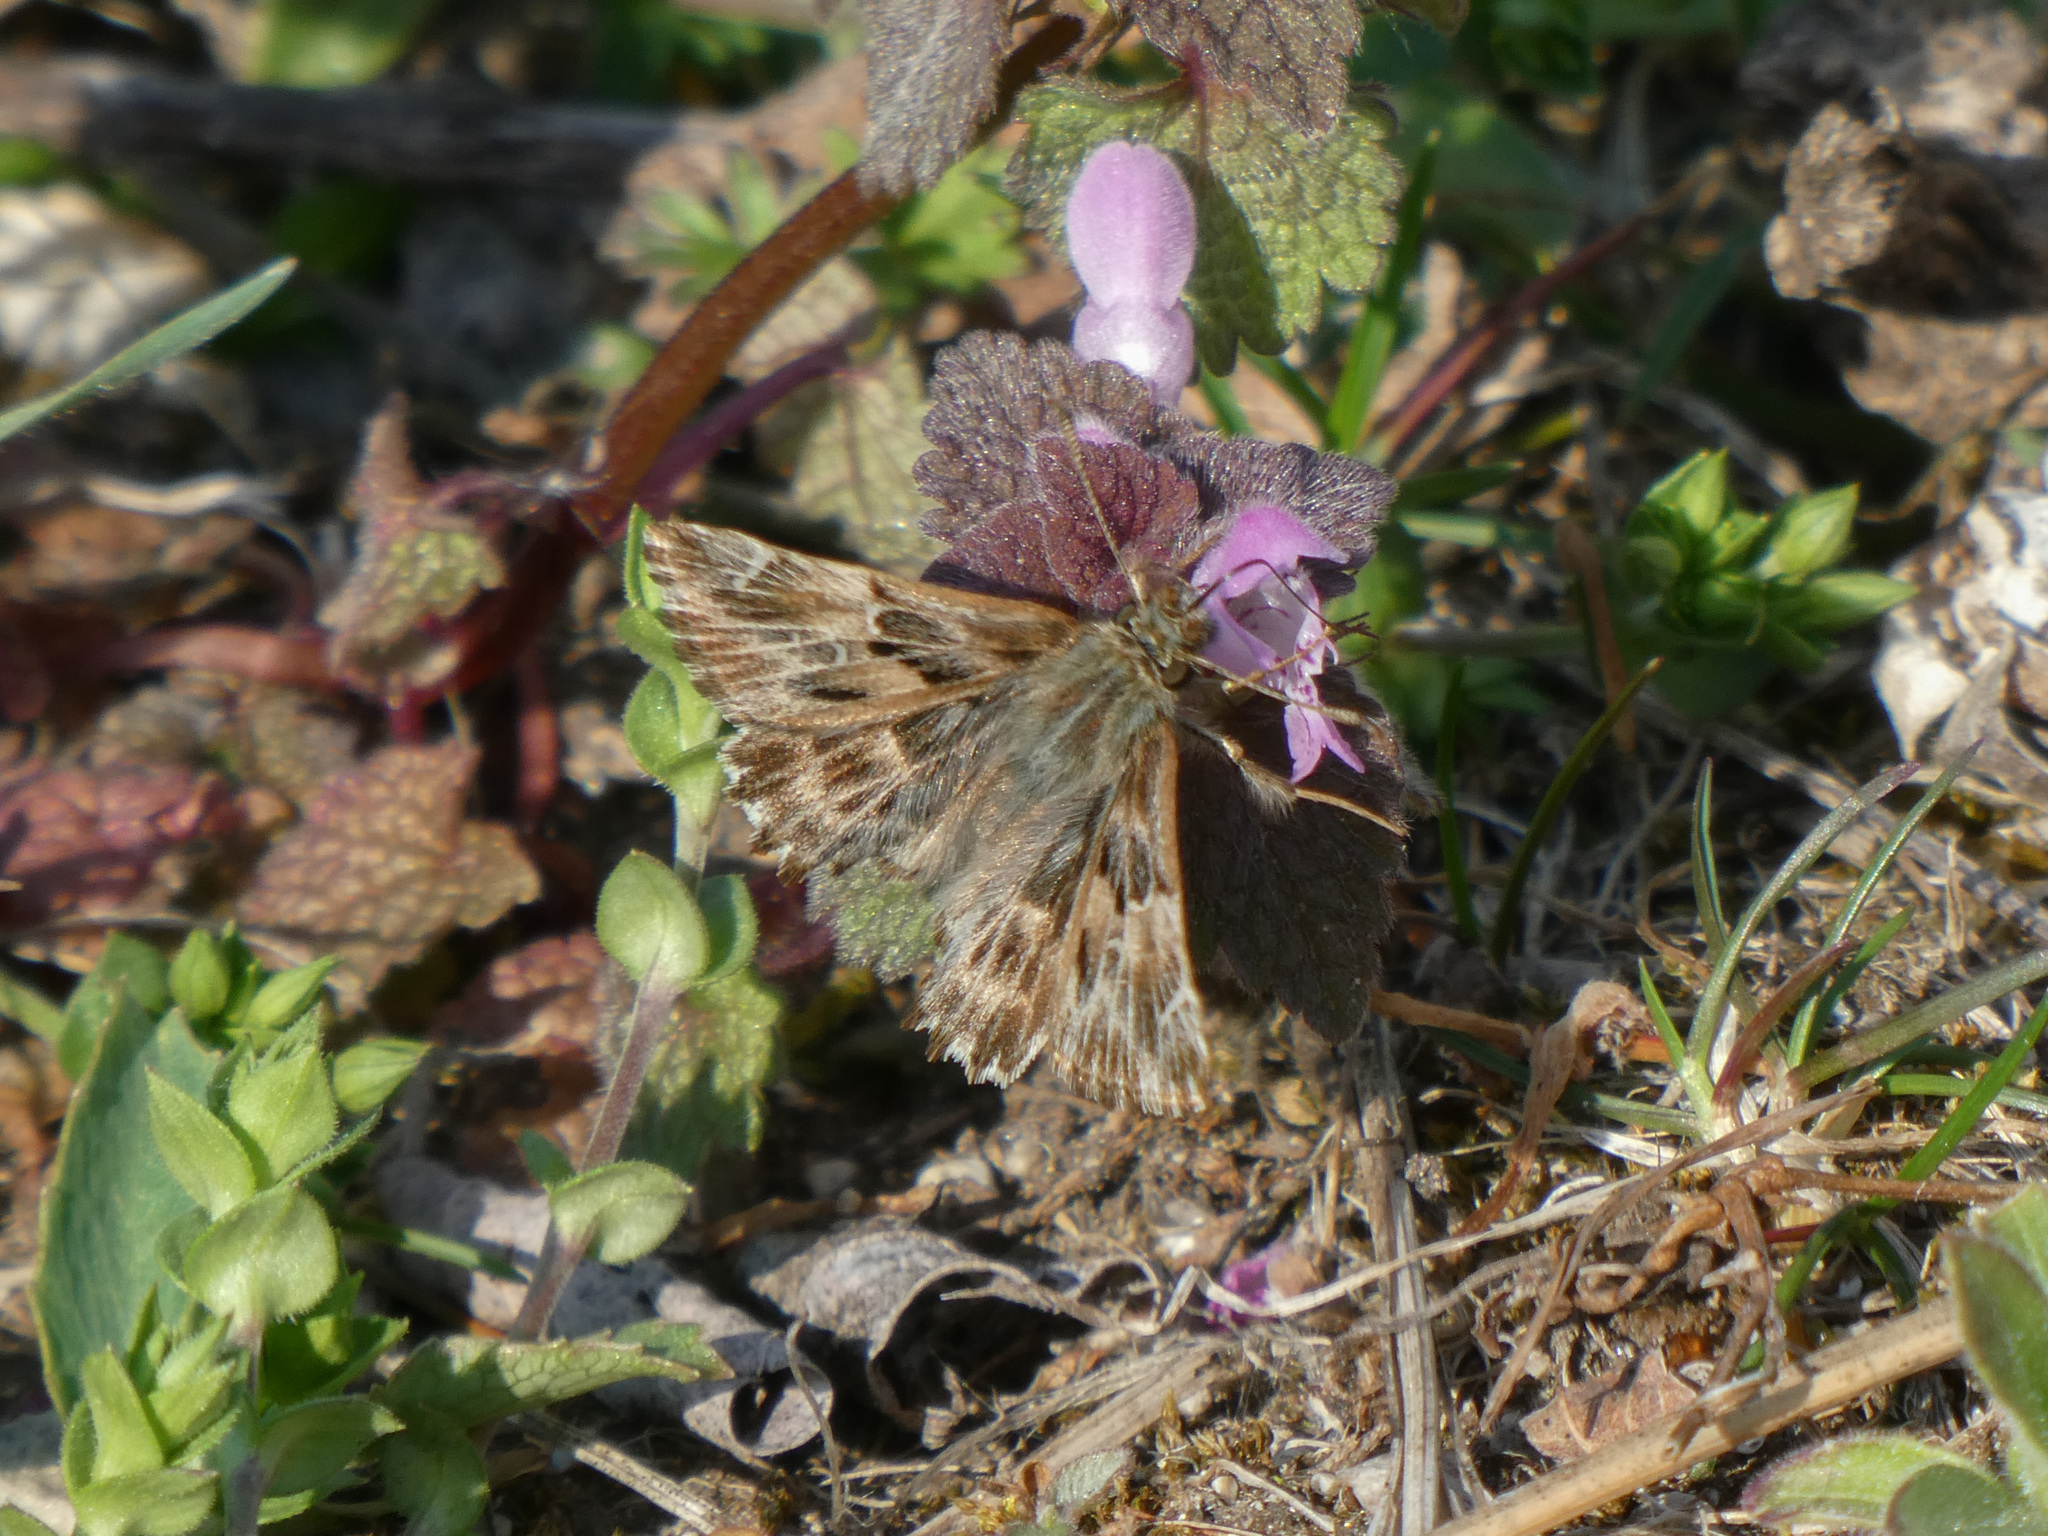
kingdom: Animalia
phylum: Arthropoda
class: Insecta
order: Lepidoptera
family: Hesperiidae
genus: Carcharodus
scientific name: Carcharodus alceae
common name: Mallow skipper
